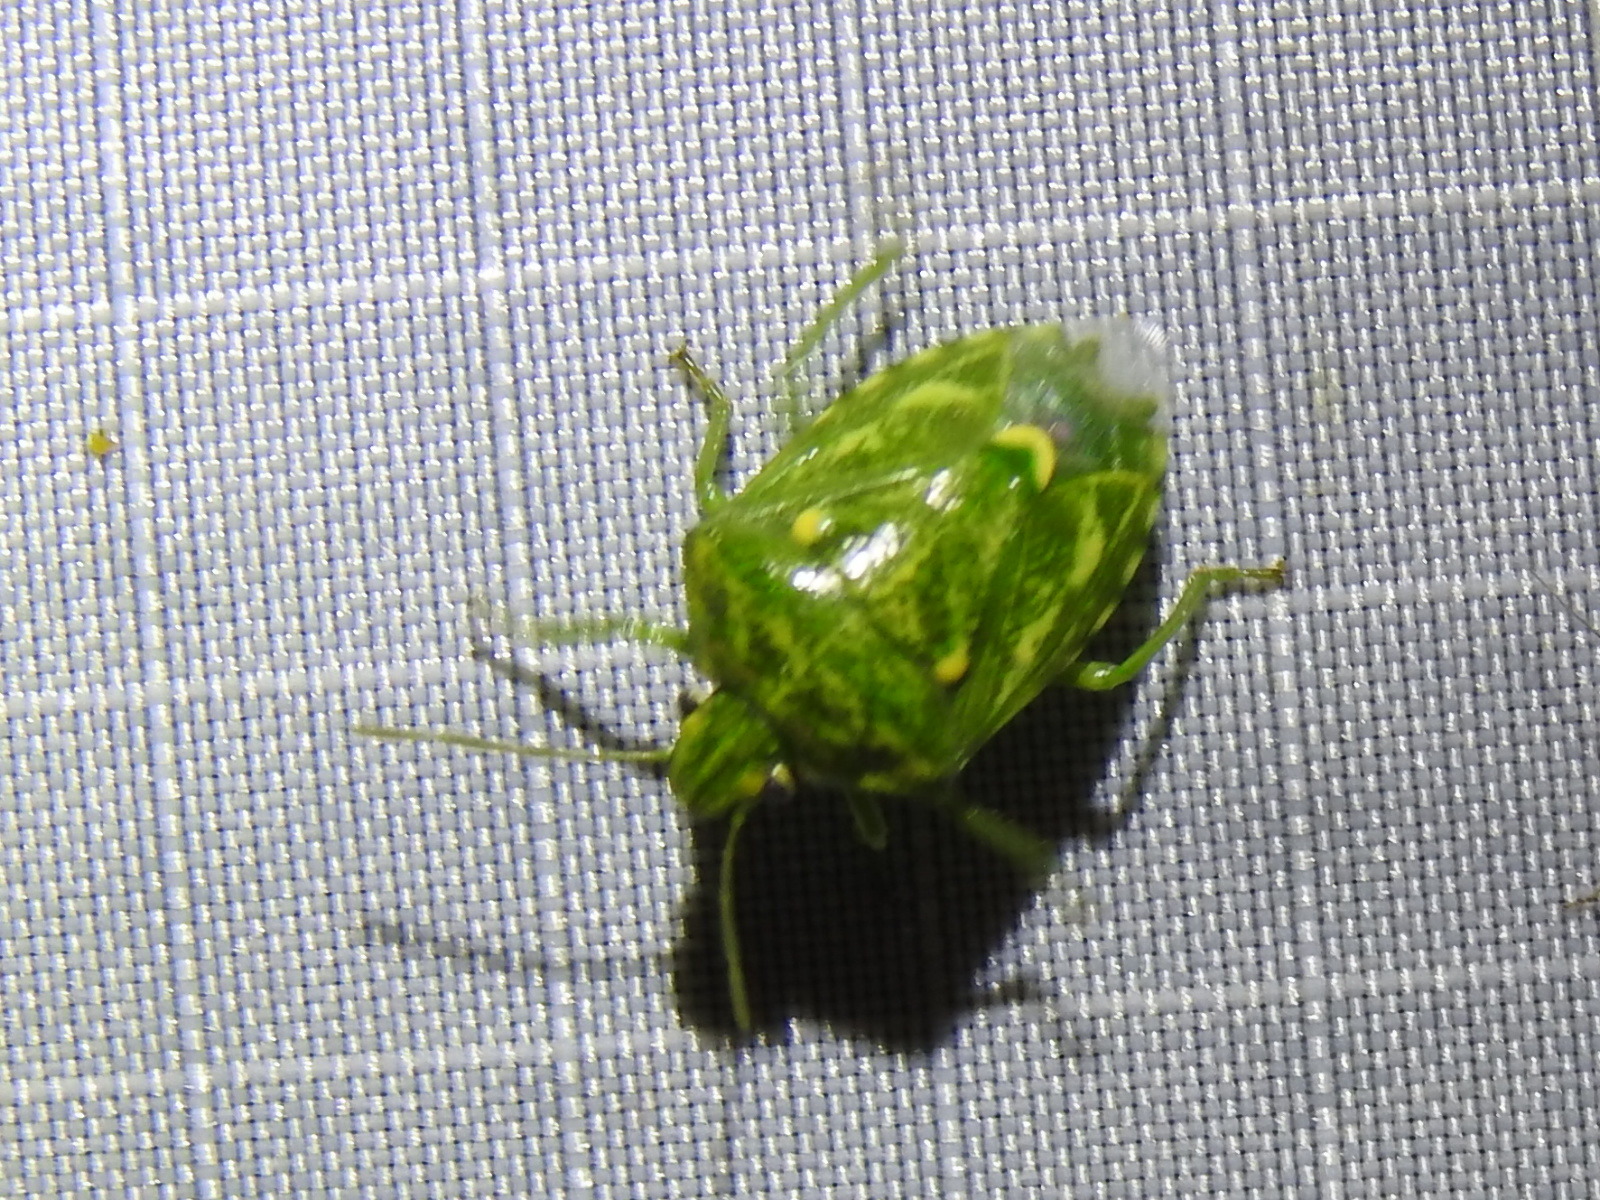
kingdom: Animalia
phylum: Arthropoda
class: Insecta
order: Hemiptera
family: Pentatomidae
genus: Banasa
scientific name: Banasa euchlora
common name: Cedar berry bug
